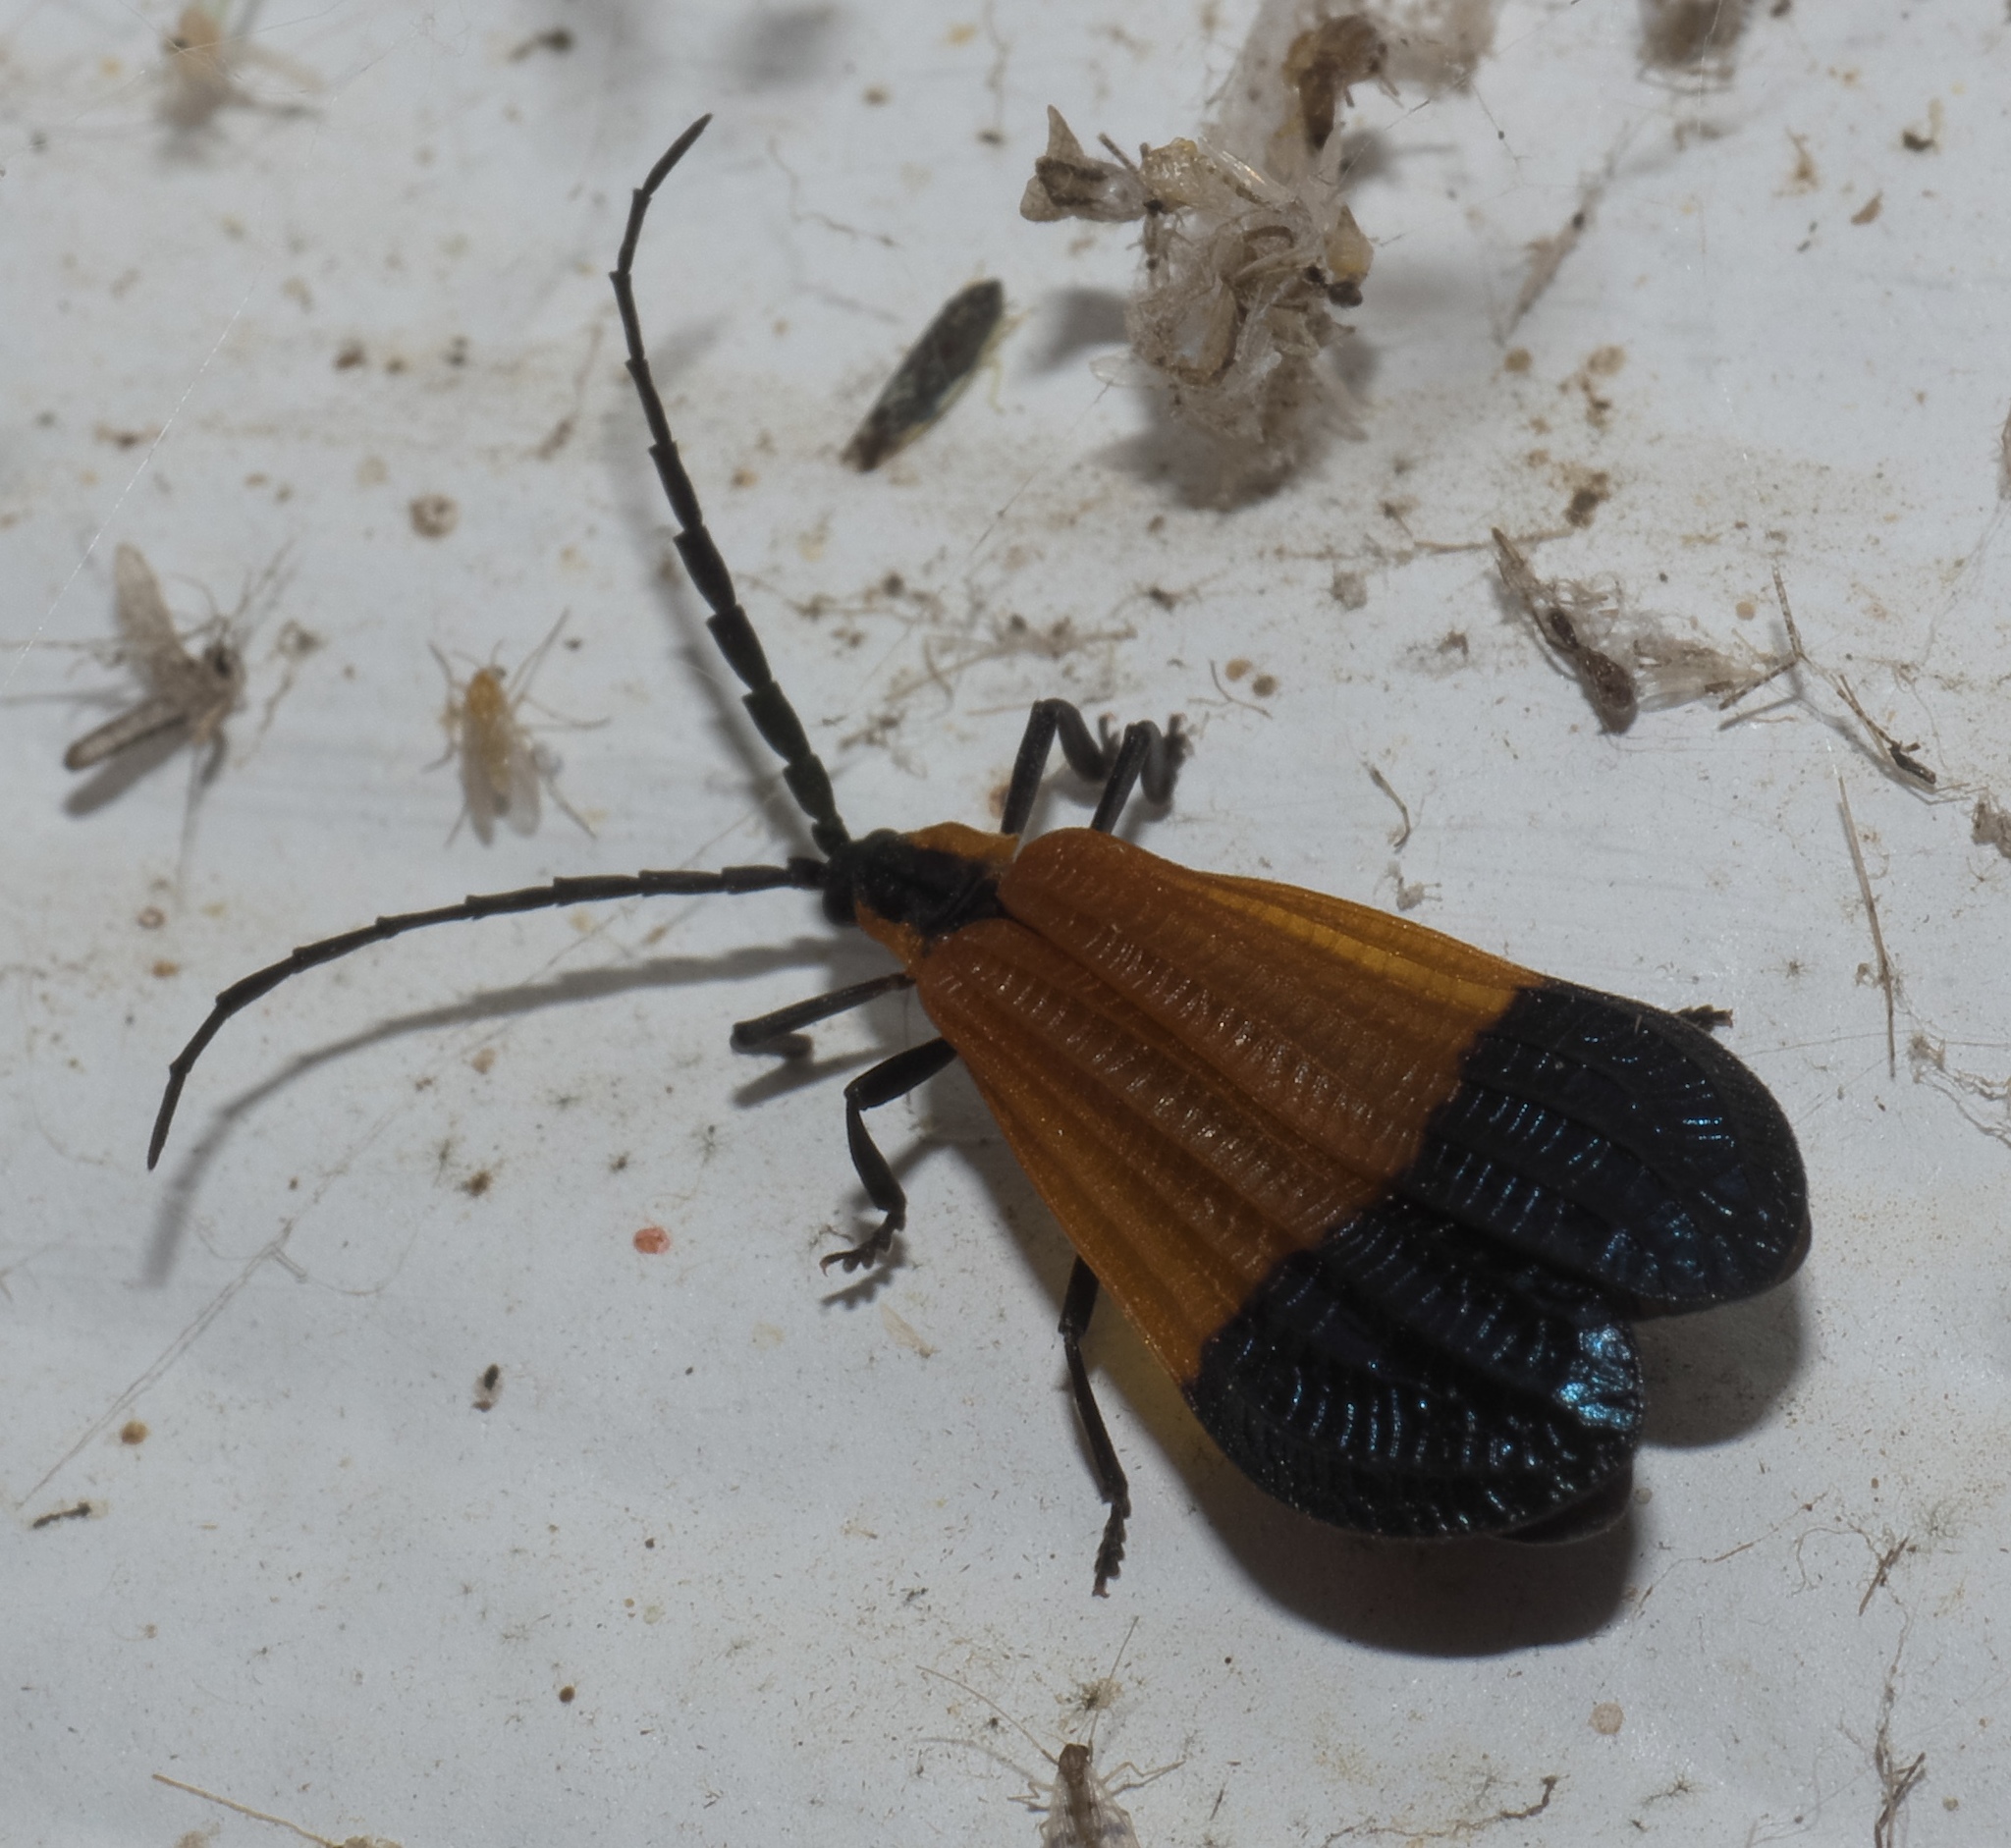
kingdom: Animalia
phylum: Arthropoda
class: Insecta
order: Coleoptera
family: Lycidae
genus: Calopteron
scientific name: Calopteron terminale
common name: End band net-winged beetle
